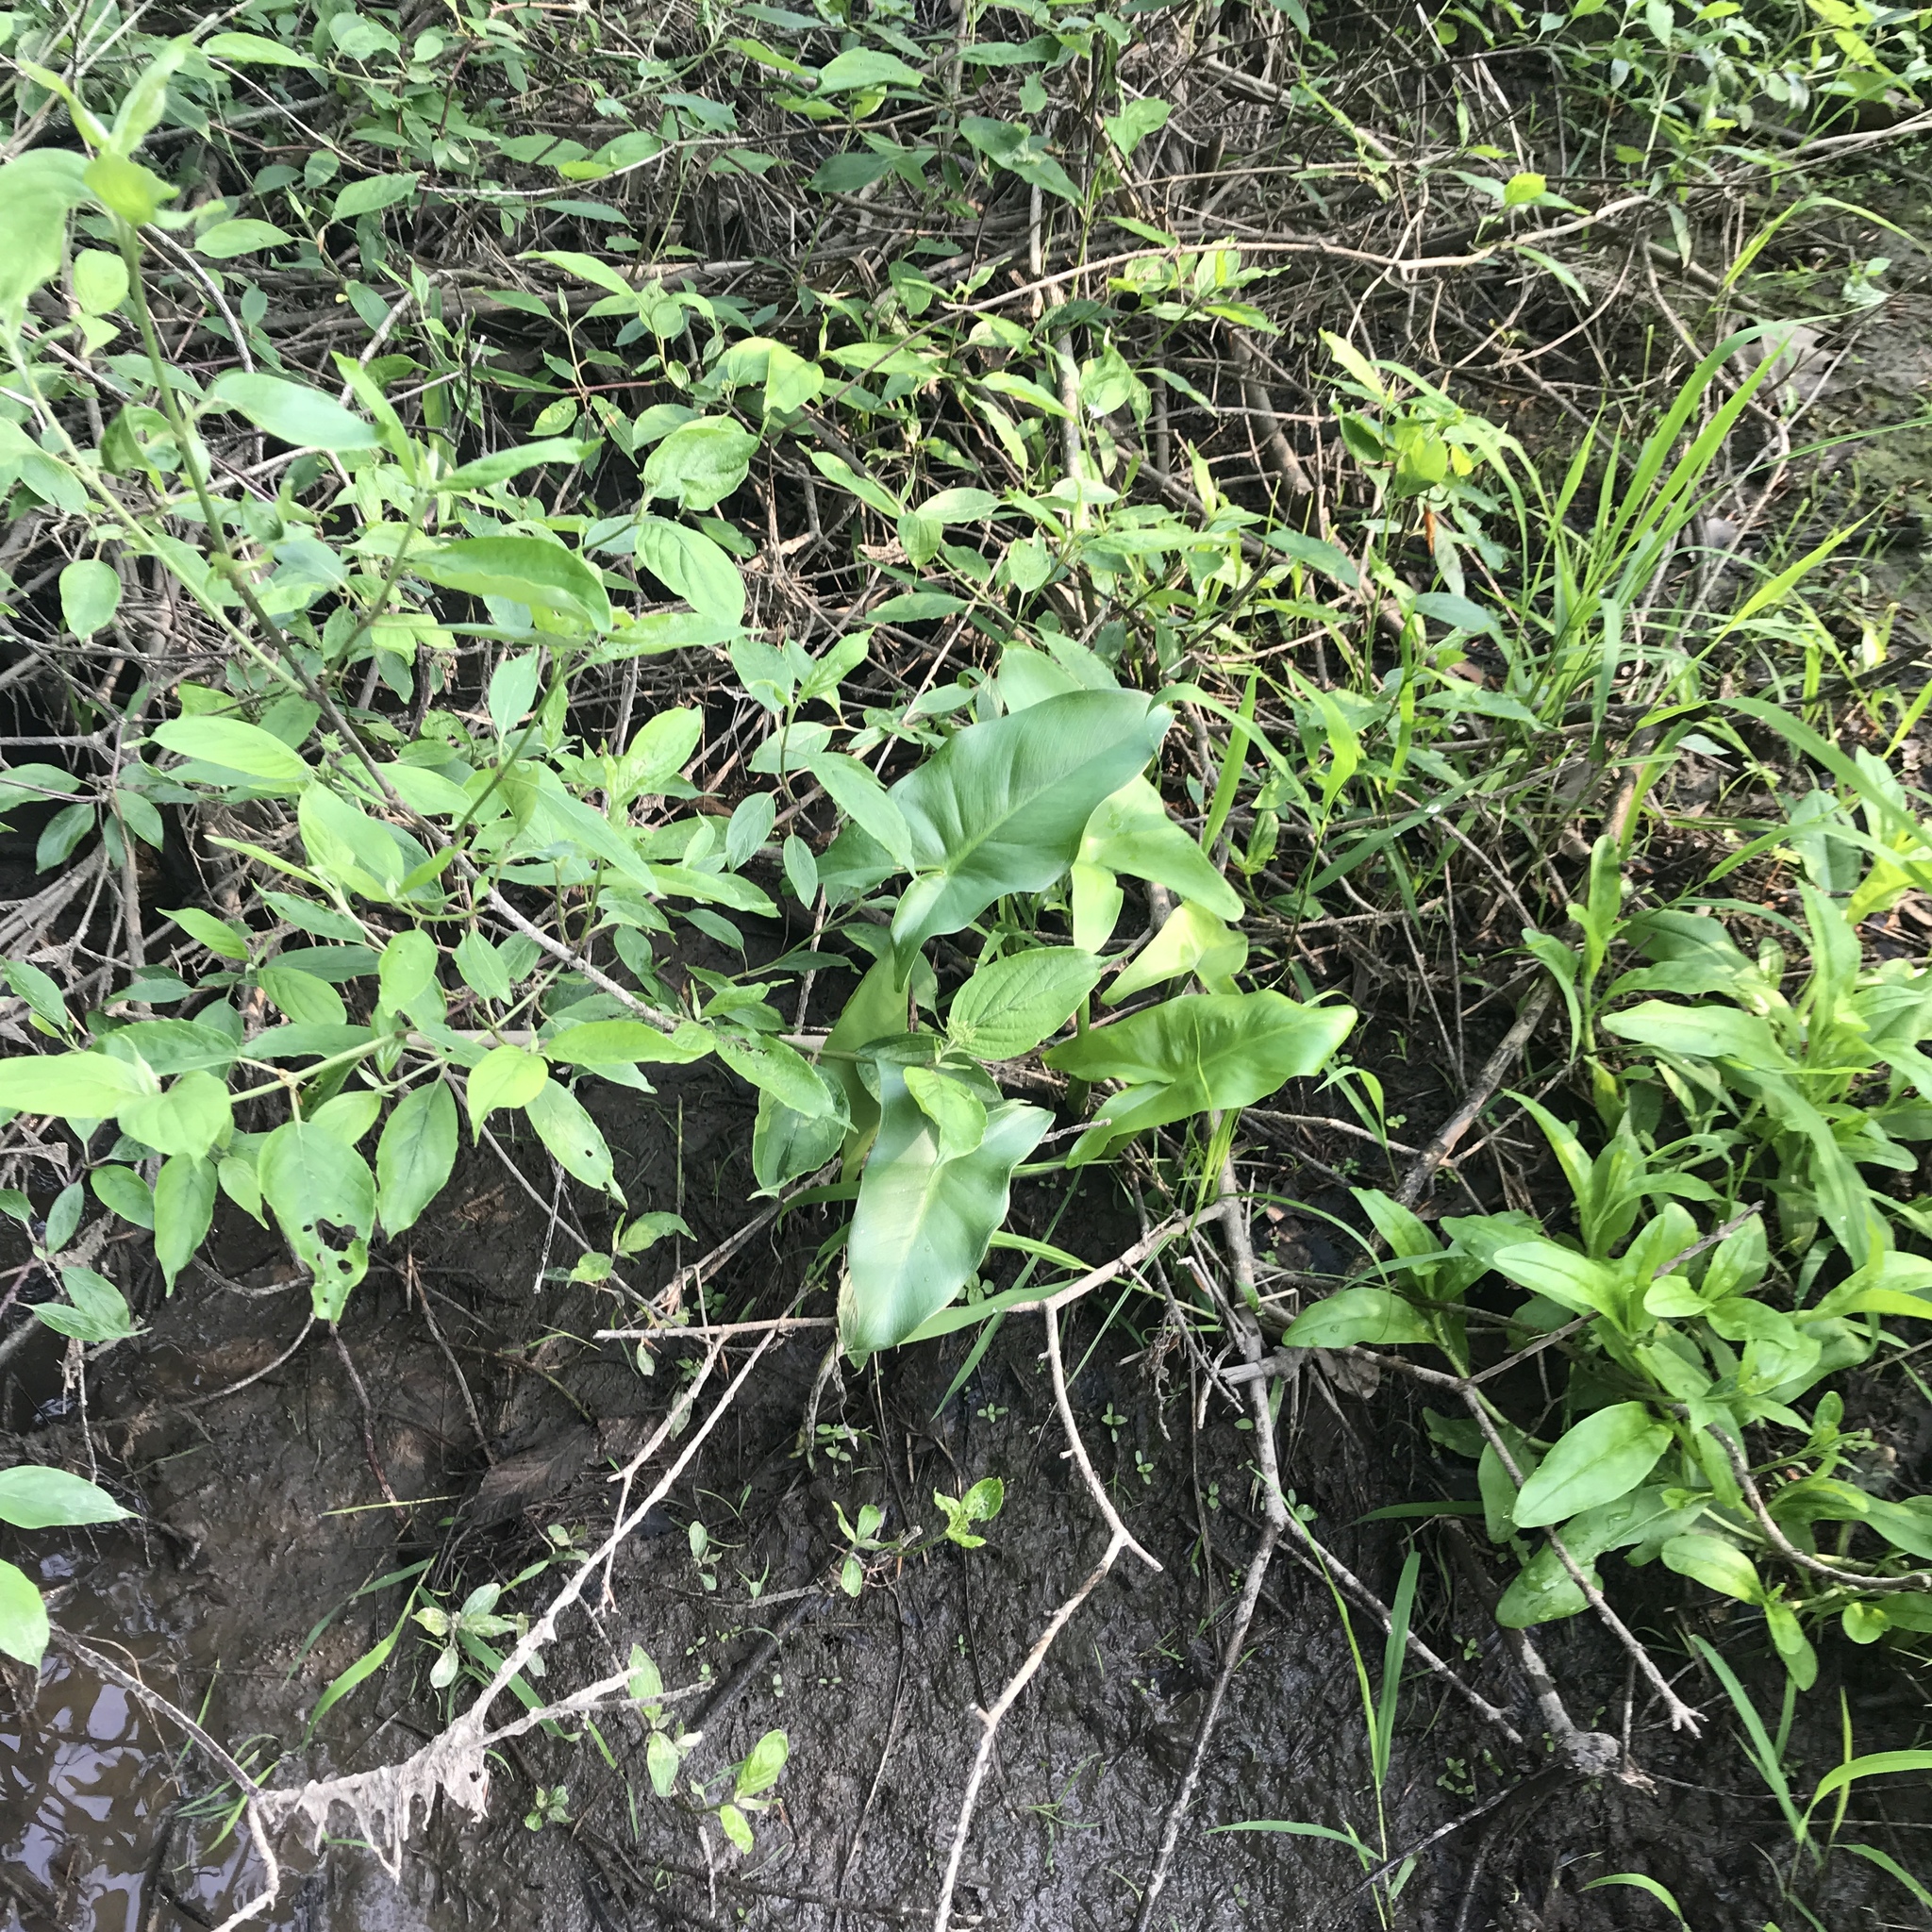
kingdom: Plantae
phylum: Tracheophyta
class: Liliopsida
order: Alismatales
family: Araceae
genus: Peltandra
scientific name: Peltandra virginica
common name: Arrow arum
